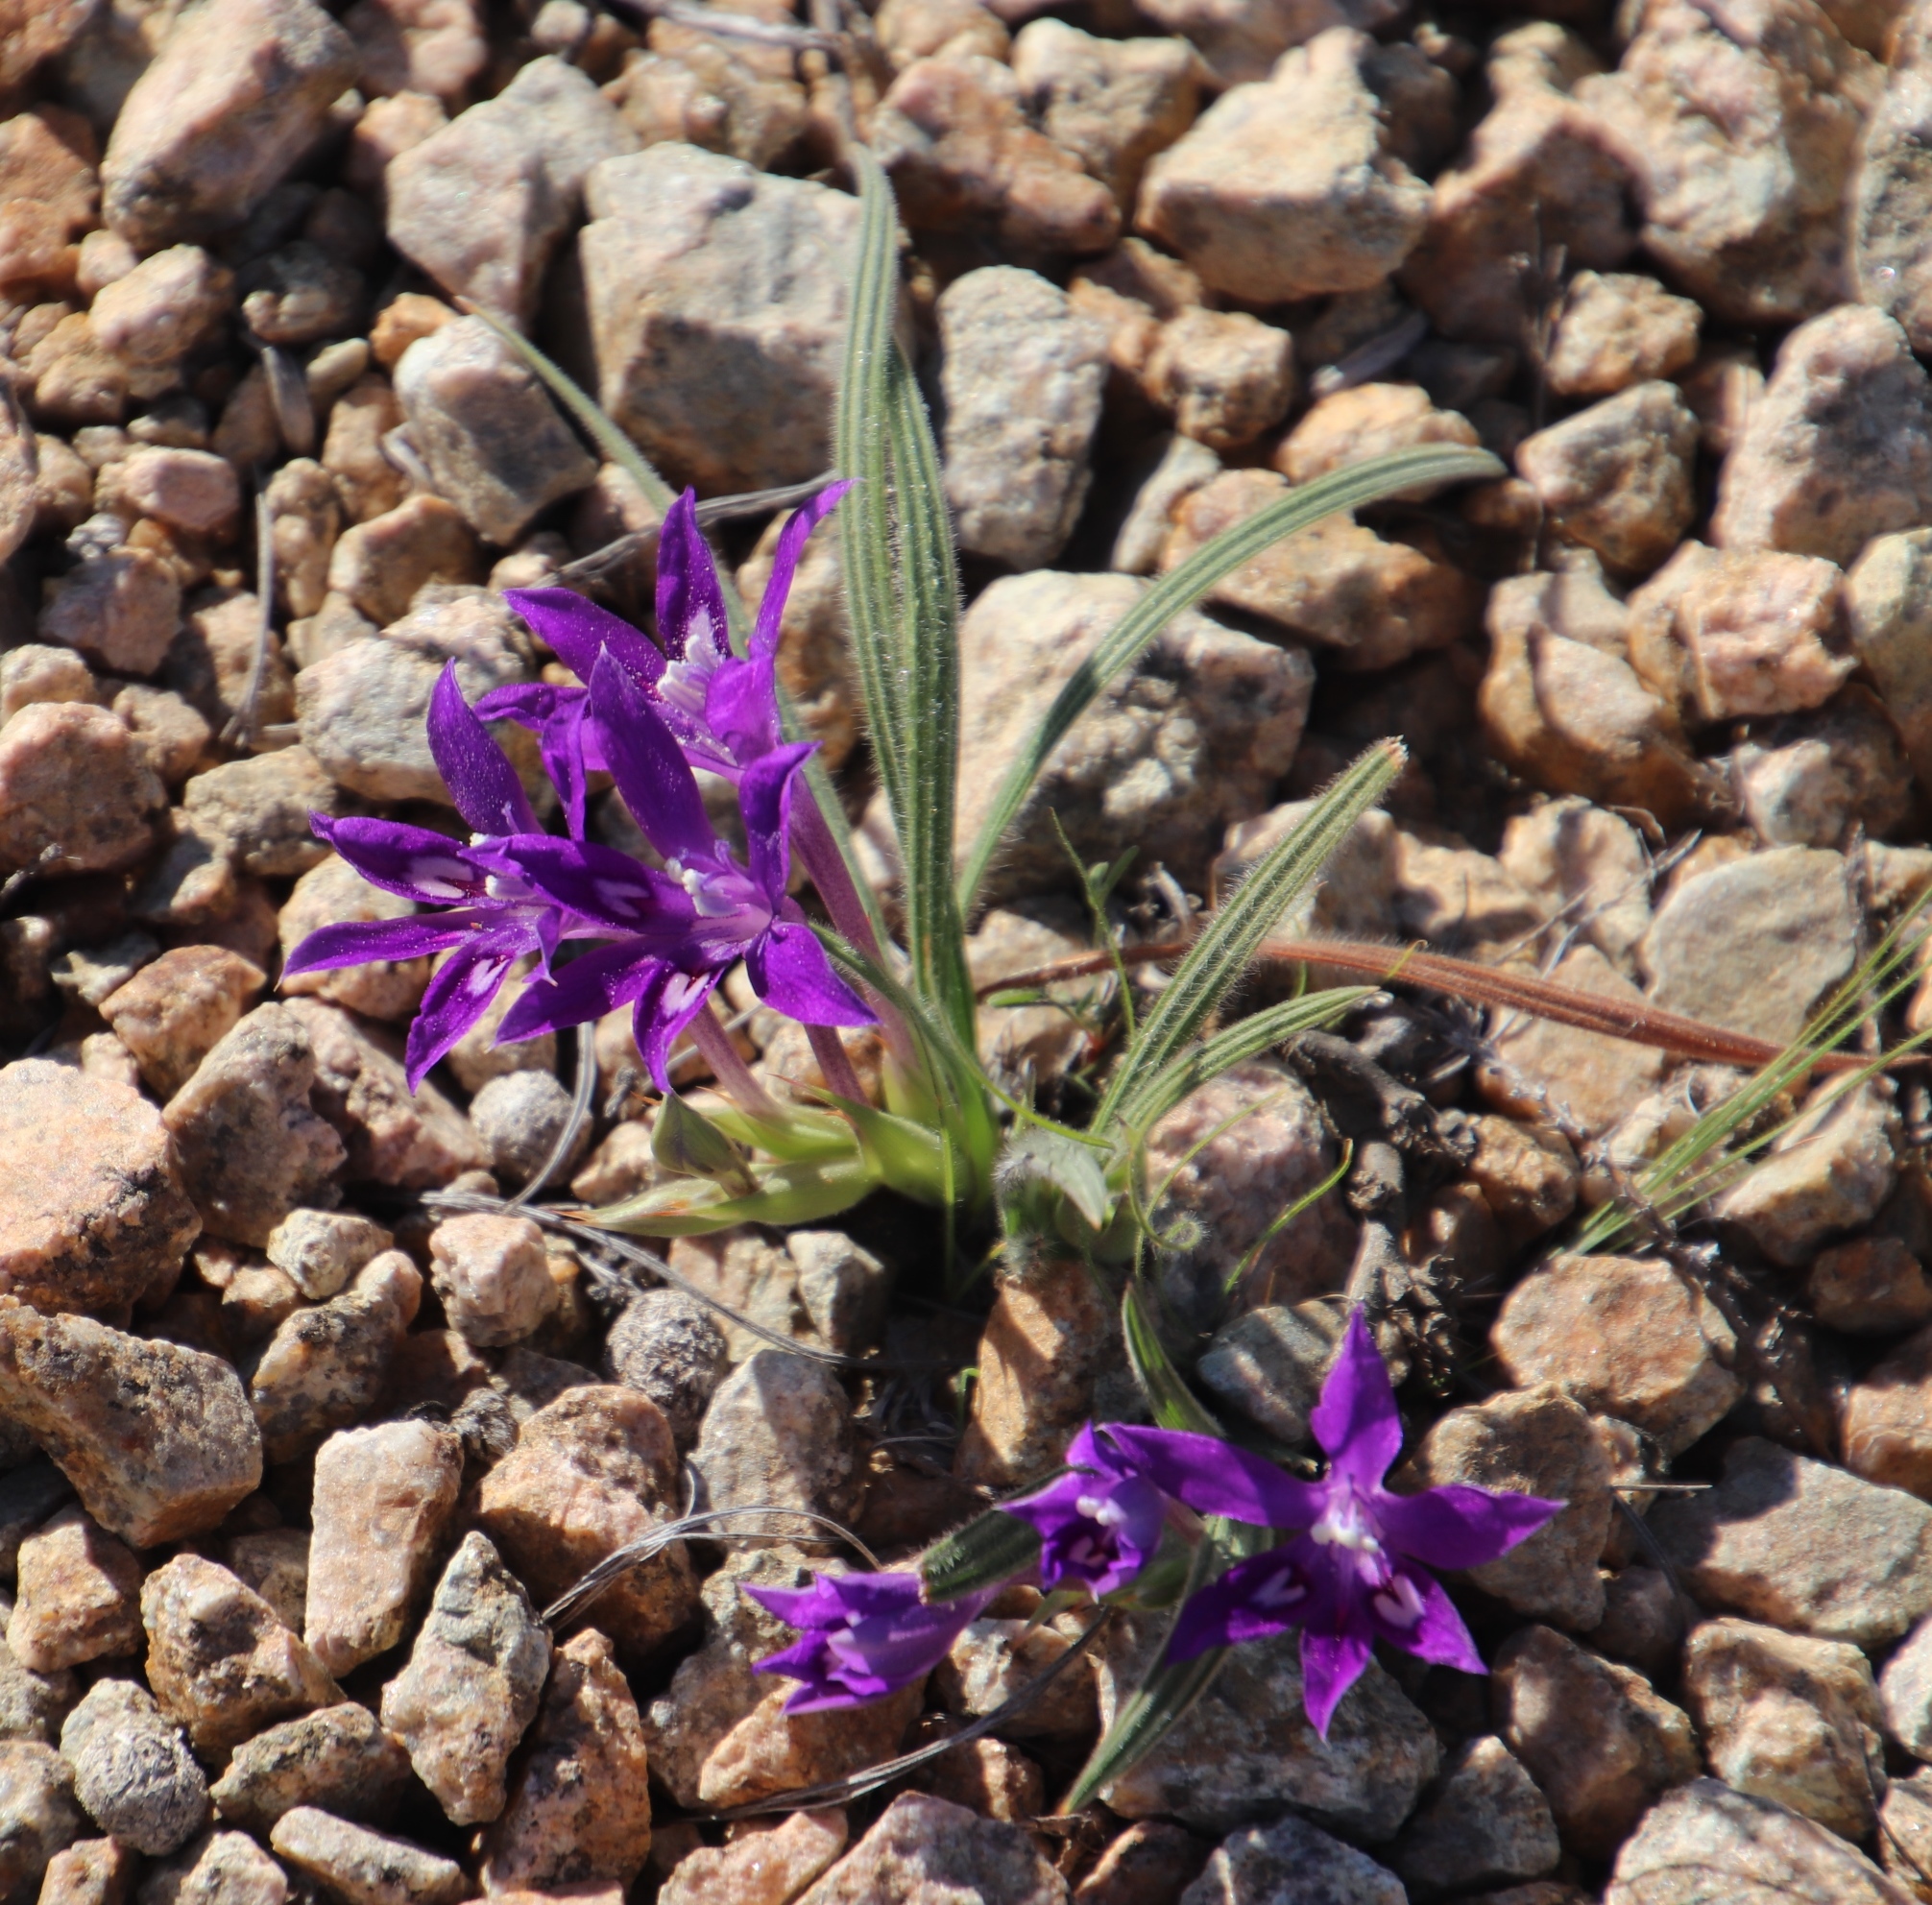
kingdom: Plantae
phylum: Tracheophyta
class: Liliopsida
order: Asparagales
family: Iridaceae
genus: Babiana
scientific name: Babiana curviscapa
